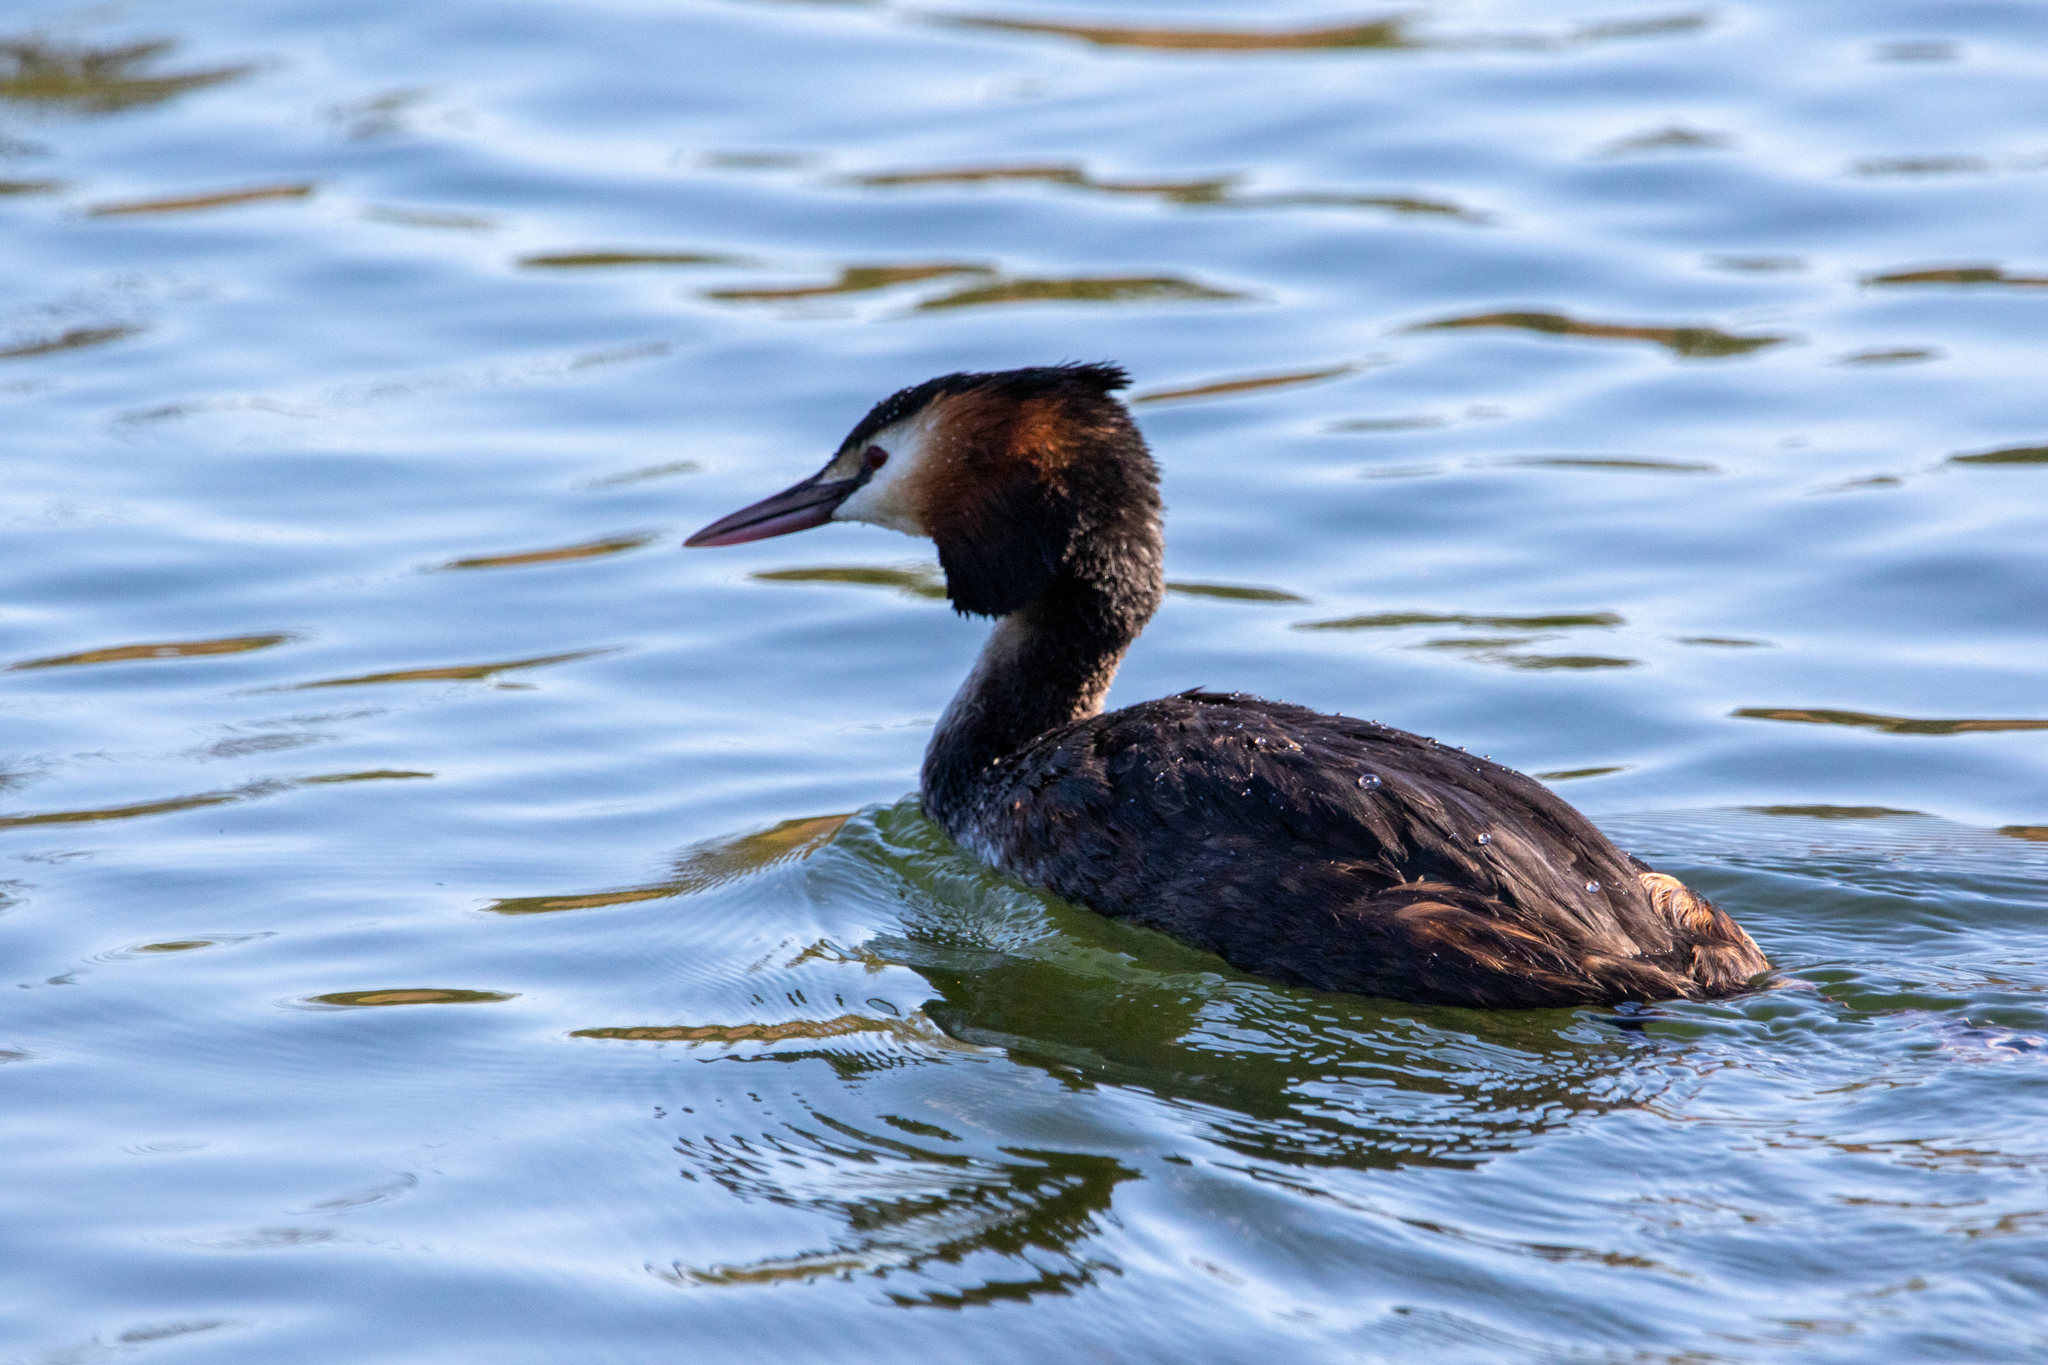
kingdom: Animalia
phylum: Chordata
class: Aves
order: Podicipediformes
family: Podicipedidae
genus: Podiceps
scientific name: Podiceps cristatus
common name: Great crested grebe
